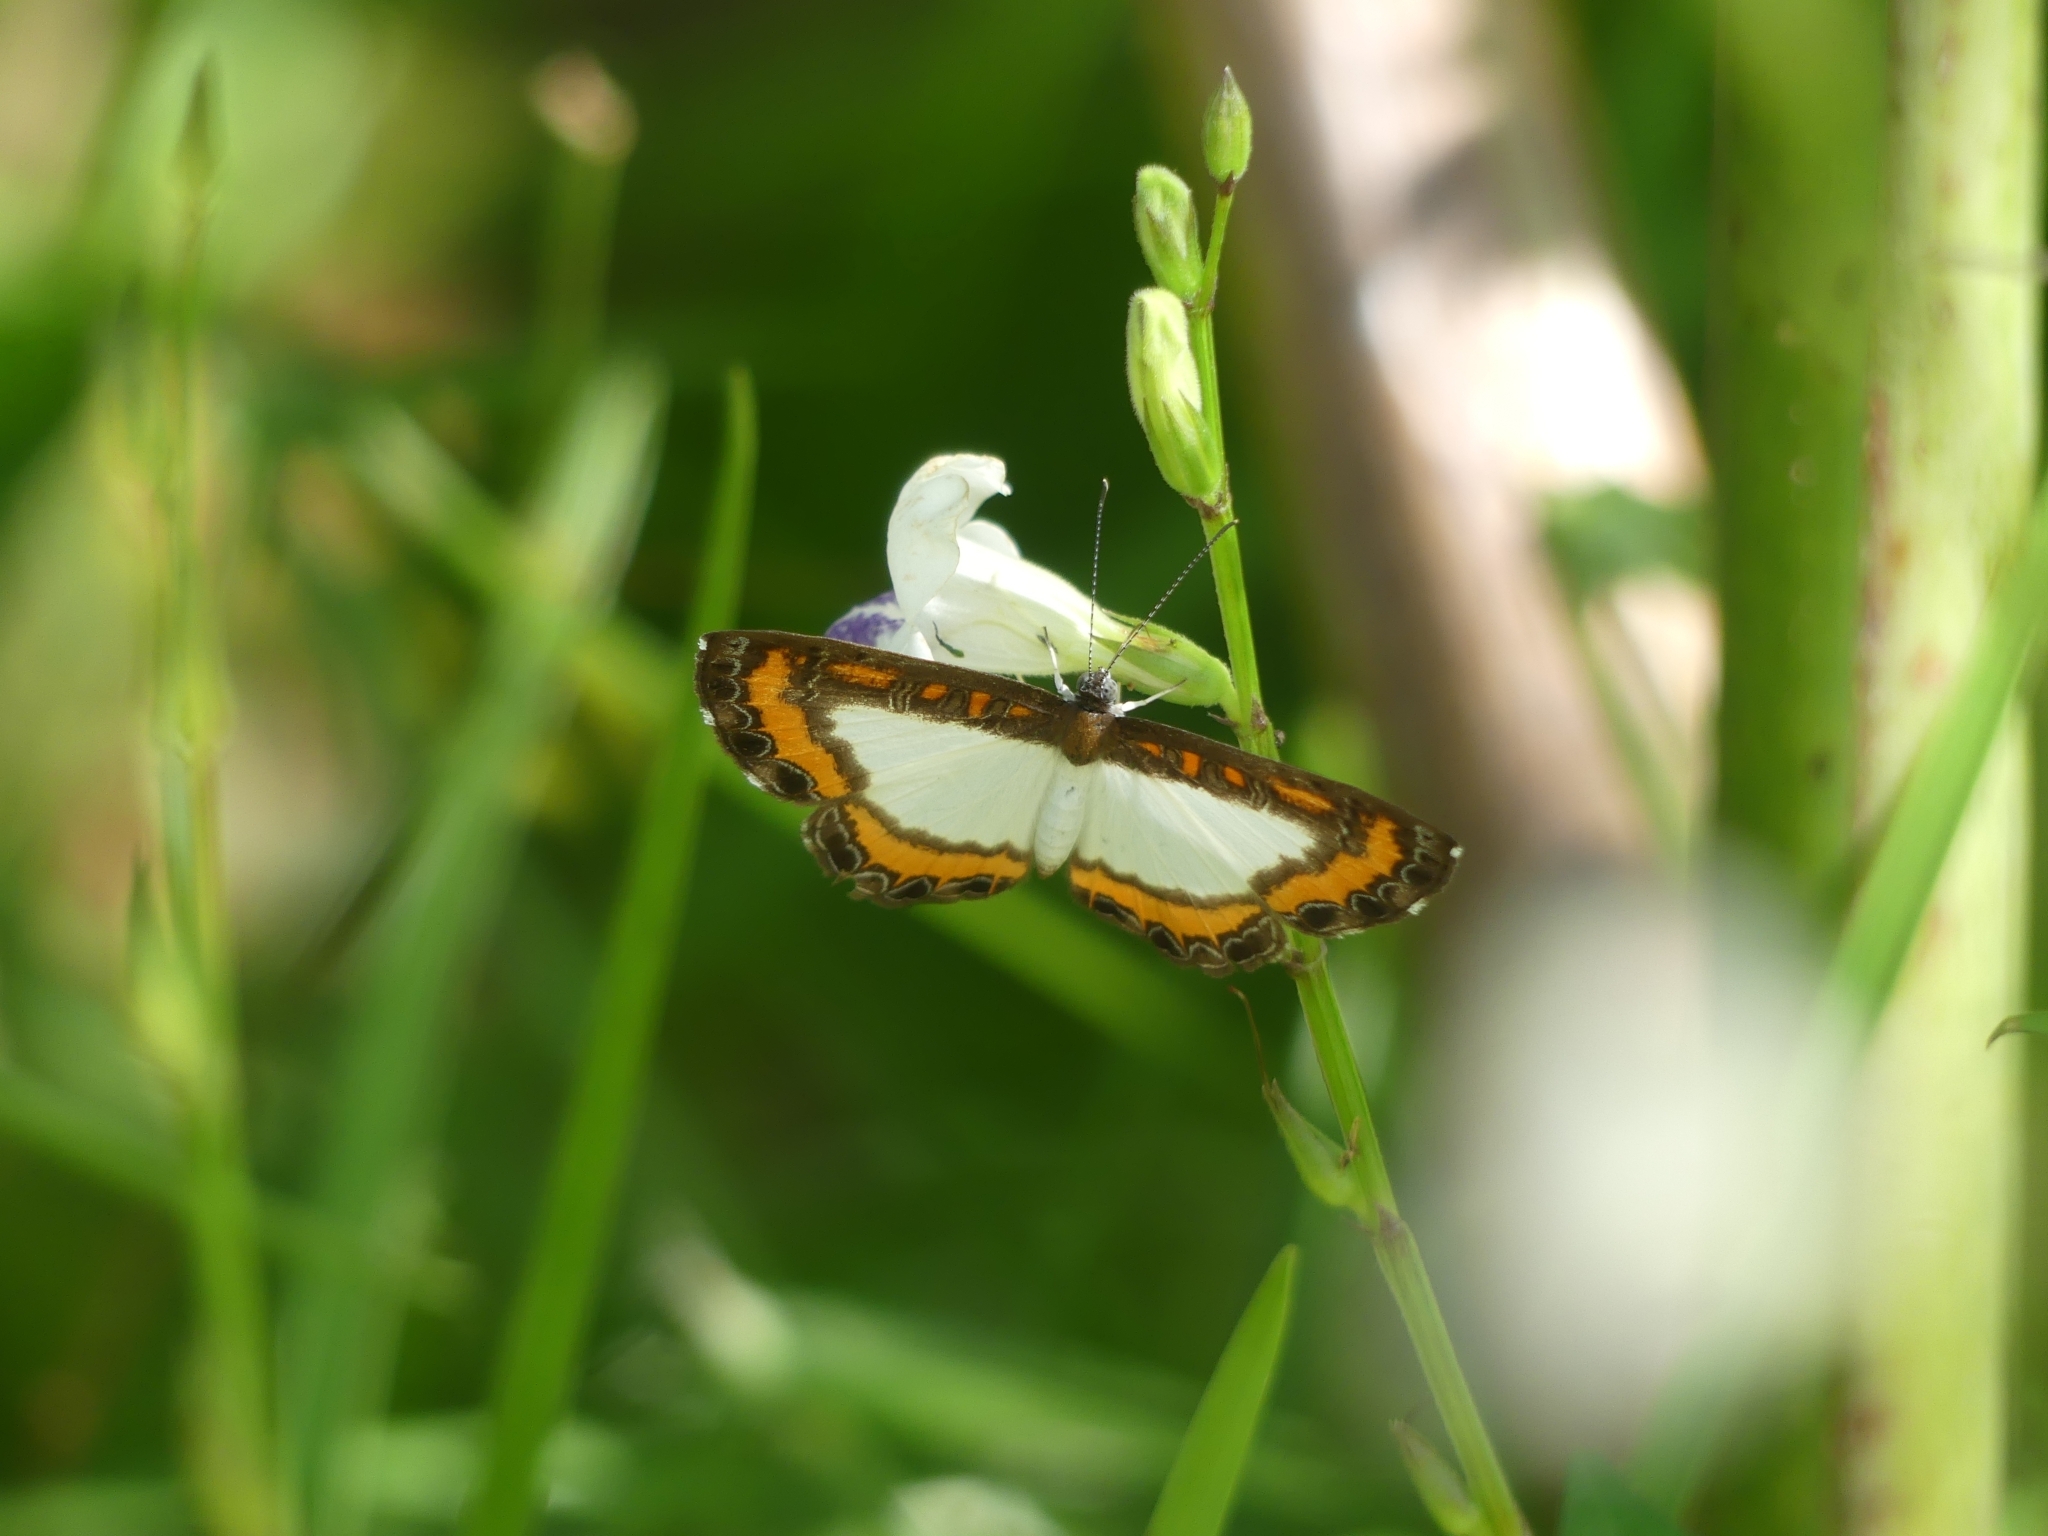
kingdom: Animalia
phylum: Arthropoda
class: Insecta
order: Lepidoptera
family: Riodinidae
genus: Nymula
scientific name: Nymula calyce
